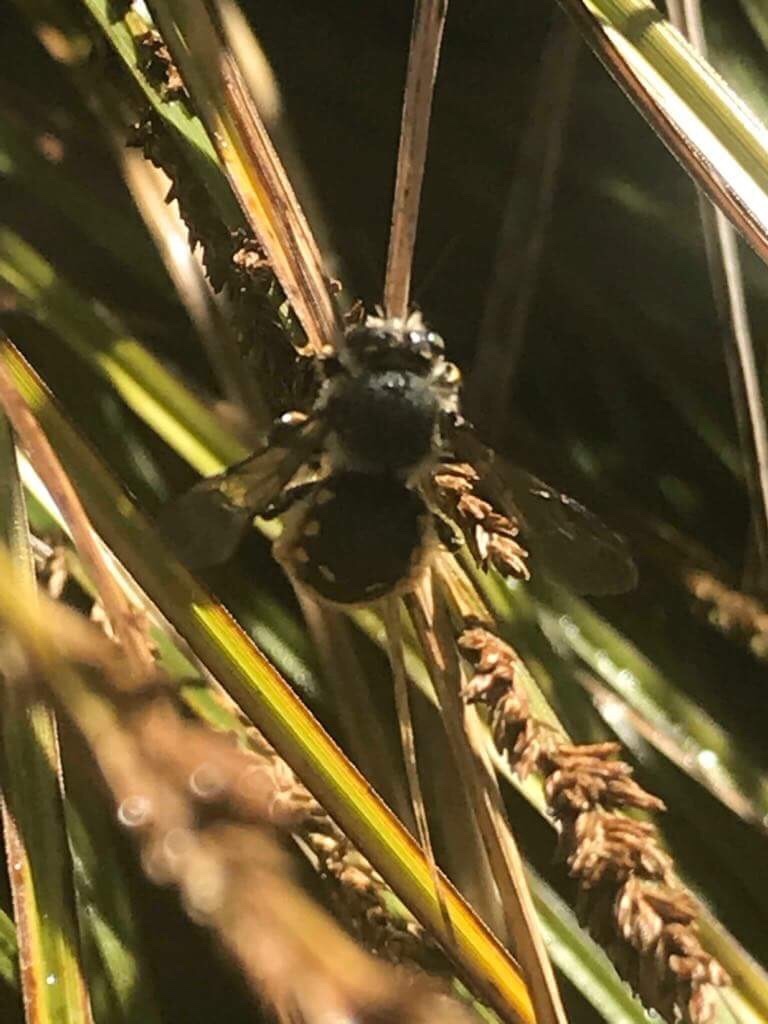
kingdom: Animalia
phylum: Arthropoda
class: Insecta
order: Hymenoptera
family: Megachilidae
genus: Anthidium
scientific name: Anthidium manicatum
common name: Wool carder bee
